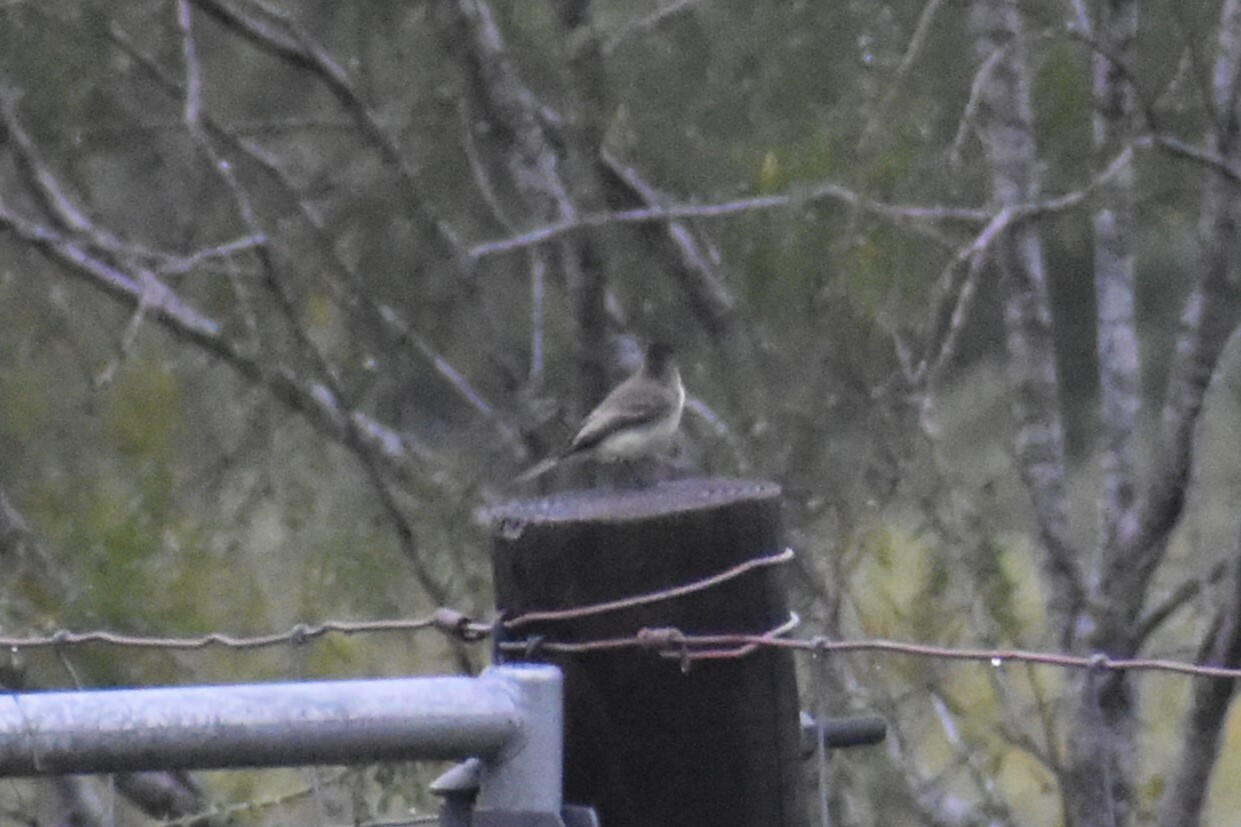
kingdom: Animalia
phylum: Chordata
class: Aves
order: Passeriformes
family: Tyrannidae
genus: Sayornis
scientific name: Sayornis phoebe
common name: Eastern phoebe
